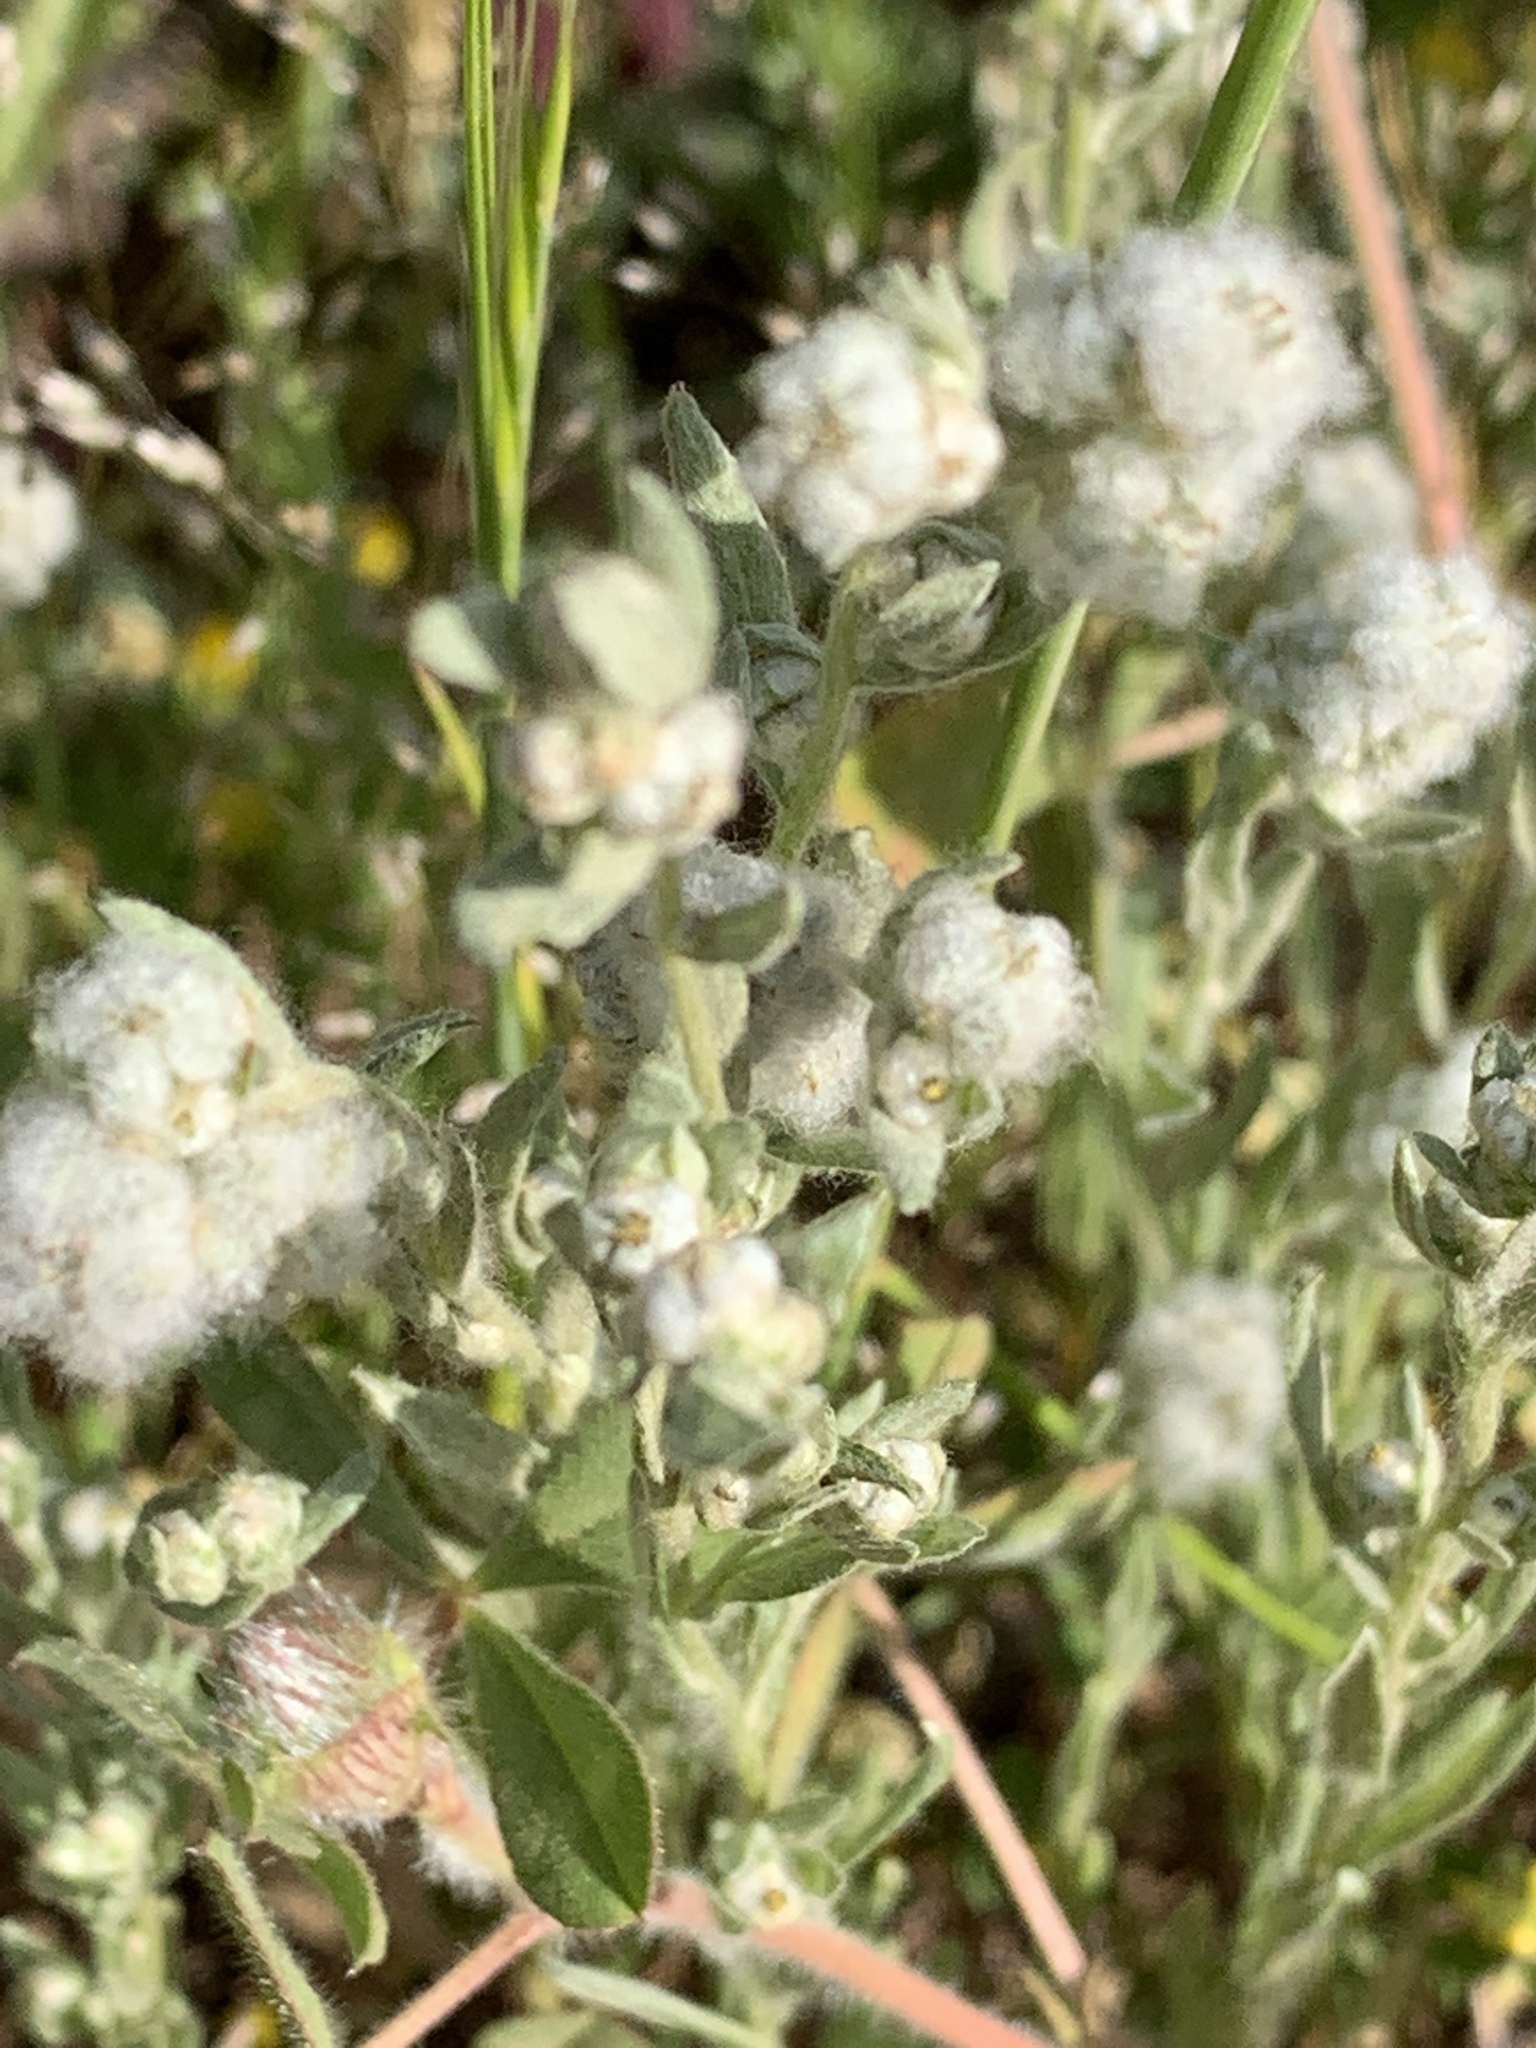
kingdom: Plantae
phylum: Tracheophyta
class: Magnoliopsida
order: Asterales
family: Asteraceae
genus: Bombycilaena
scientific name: Bombycilaena californica
